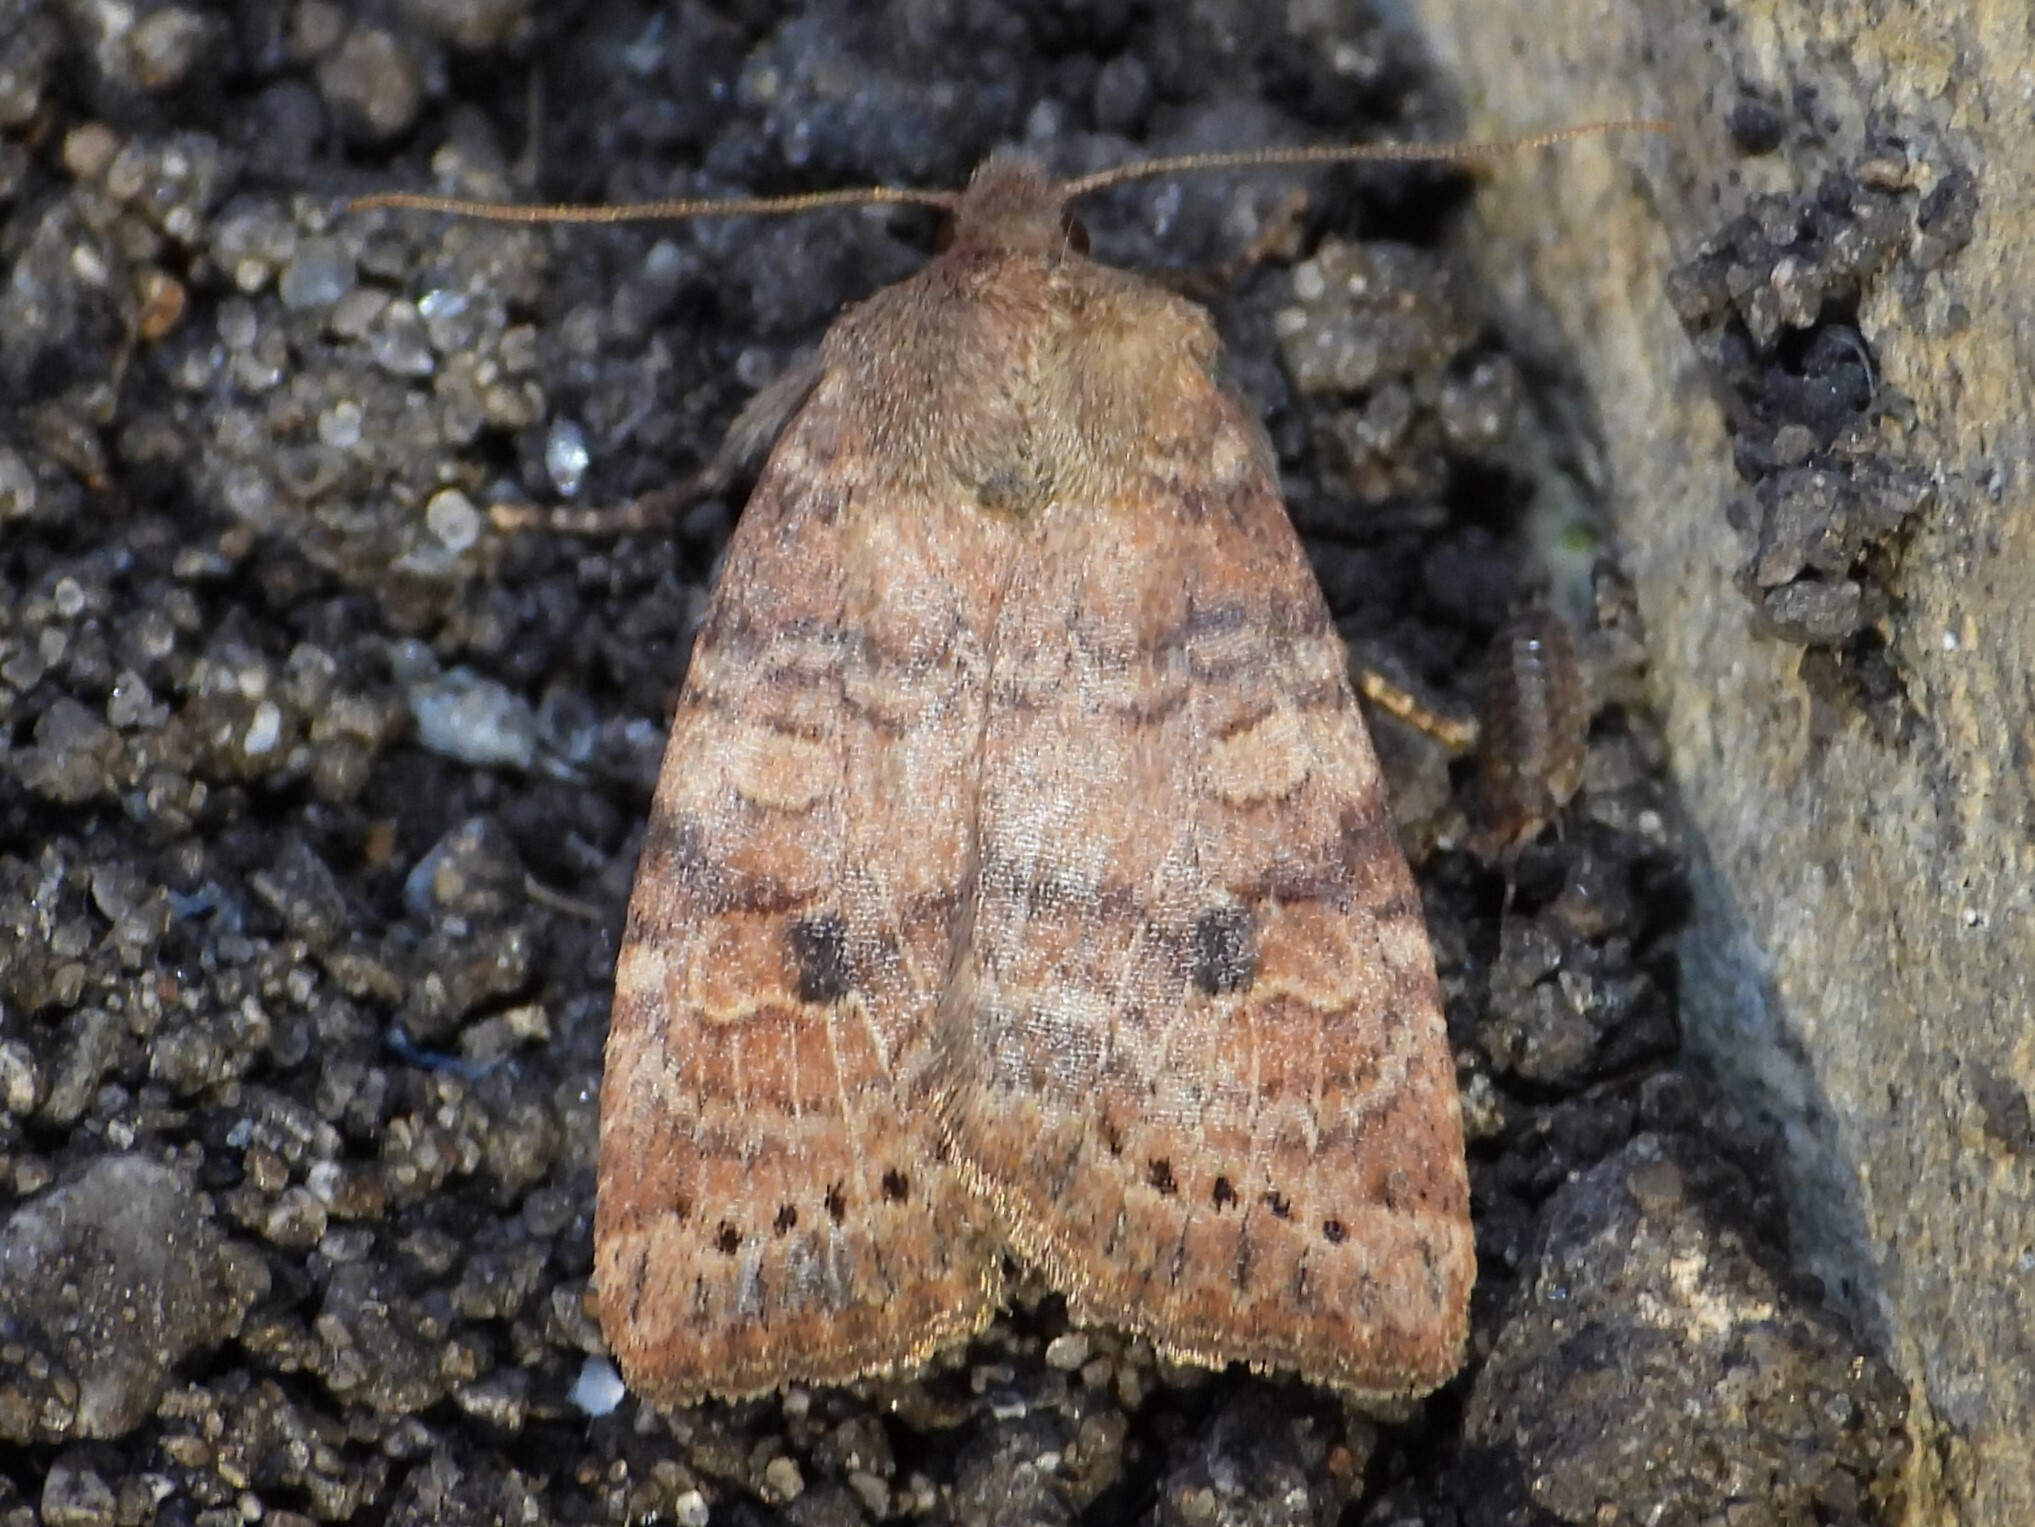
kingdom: Animalia
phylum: Arthropoda
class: Insecta
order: Lepidoptera
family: Noctuidae
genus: Anathix
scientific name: Anathix puta
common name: Puta sallow
